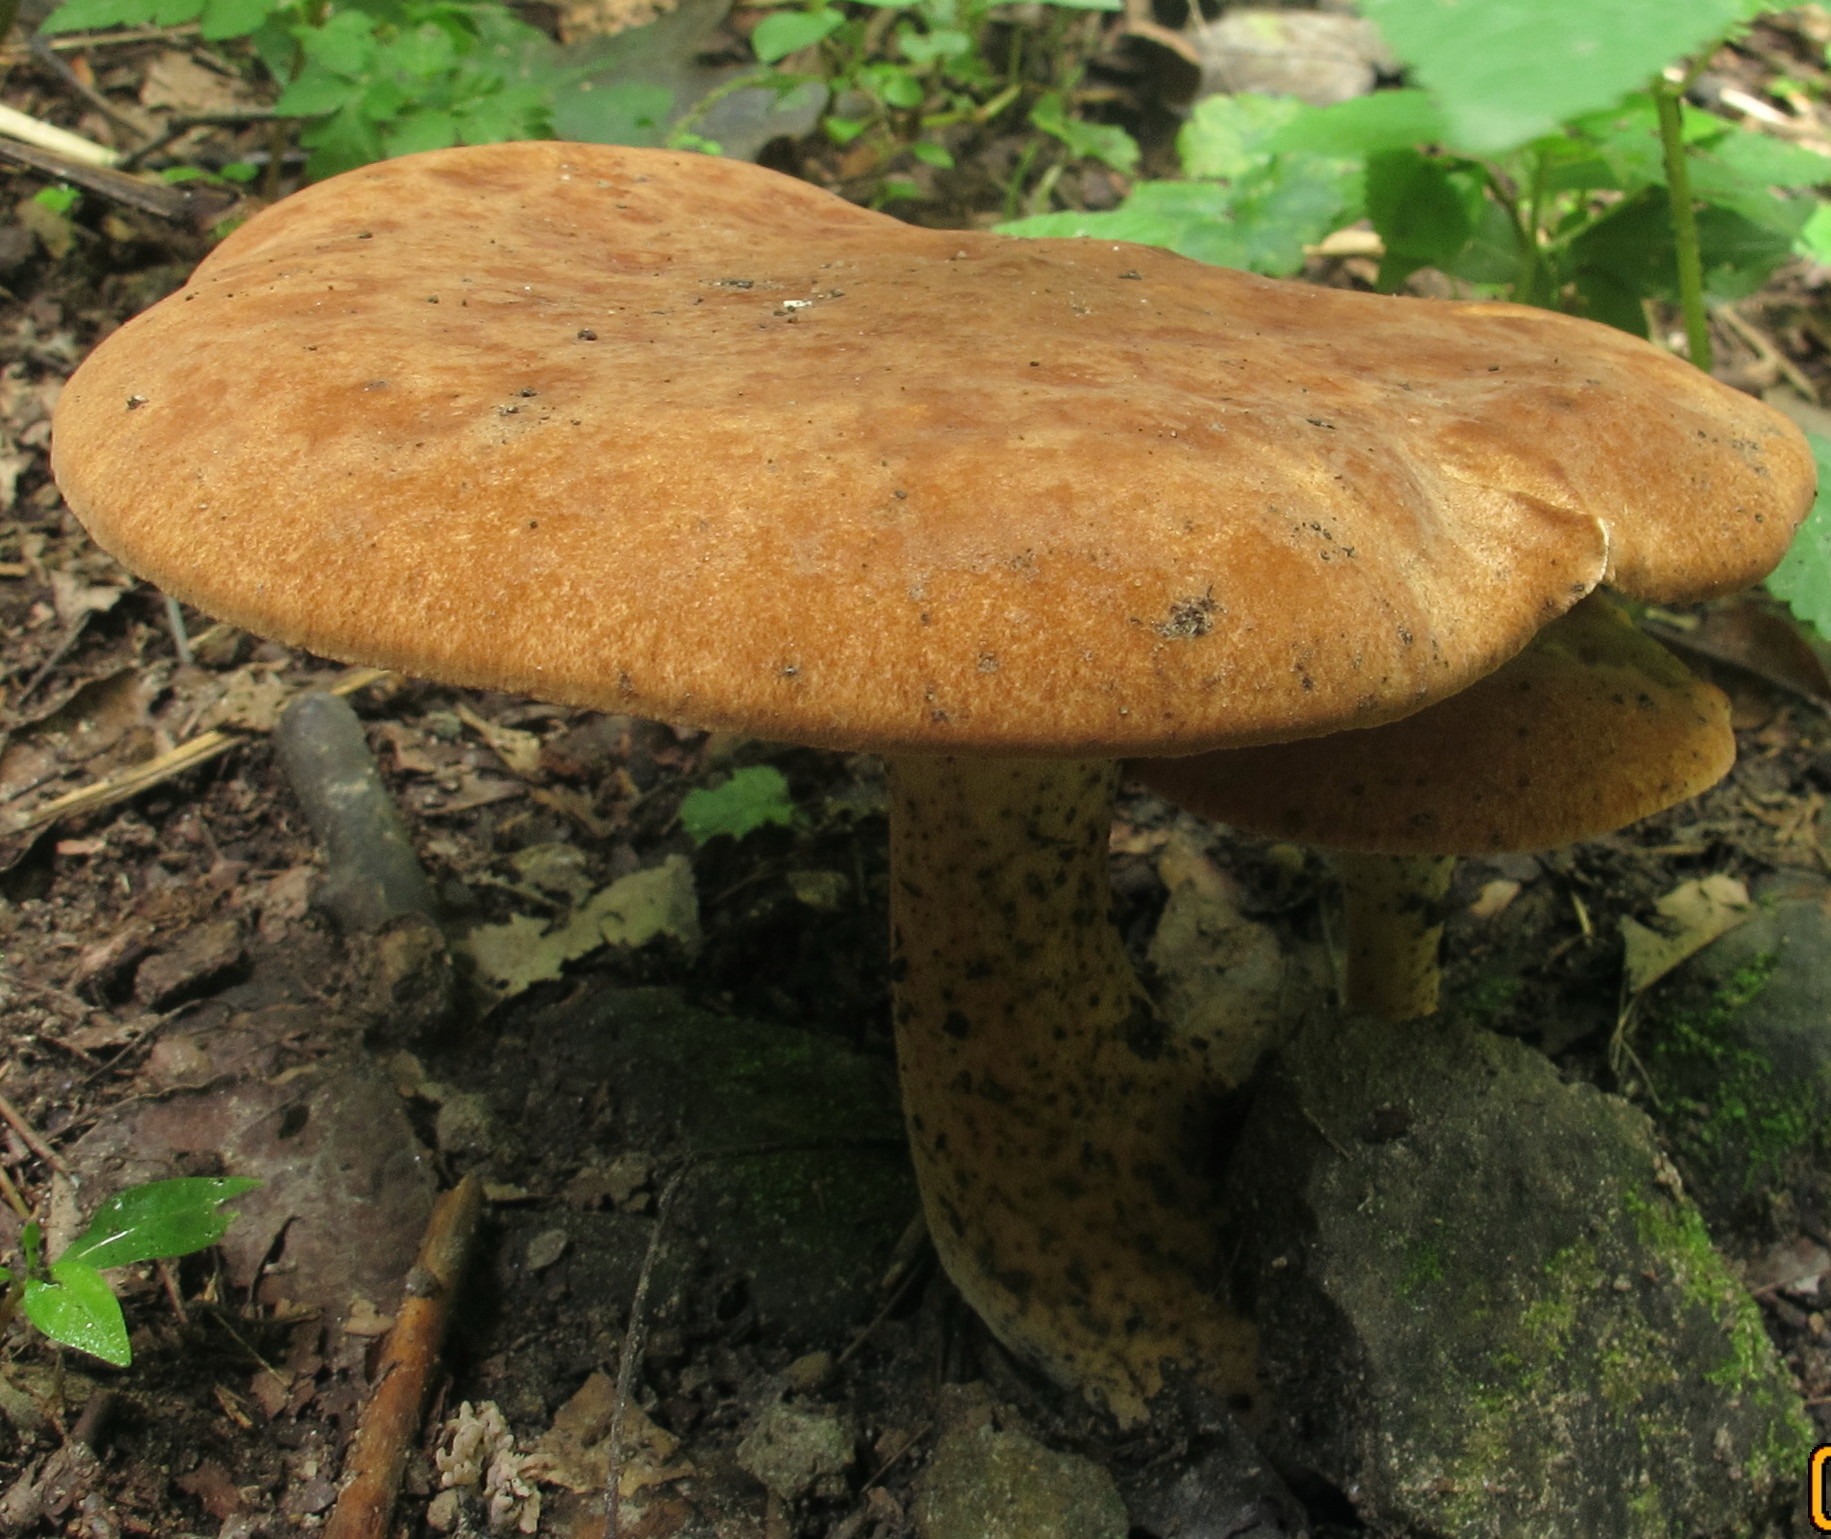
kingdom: Fungi
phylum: Basidiomycota
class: Agaricomycetes
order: Polyporales
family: Polyporaceae
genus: Polyporus
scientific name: Polyporus radicatus
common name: Rooting polypore
